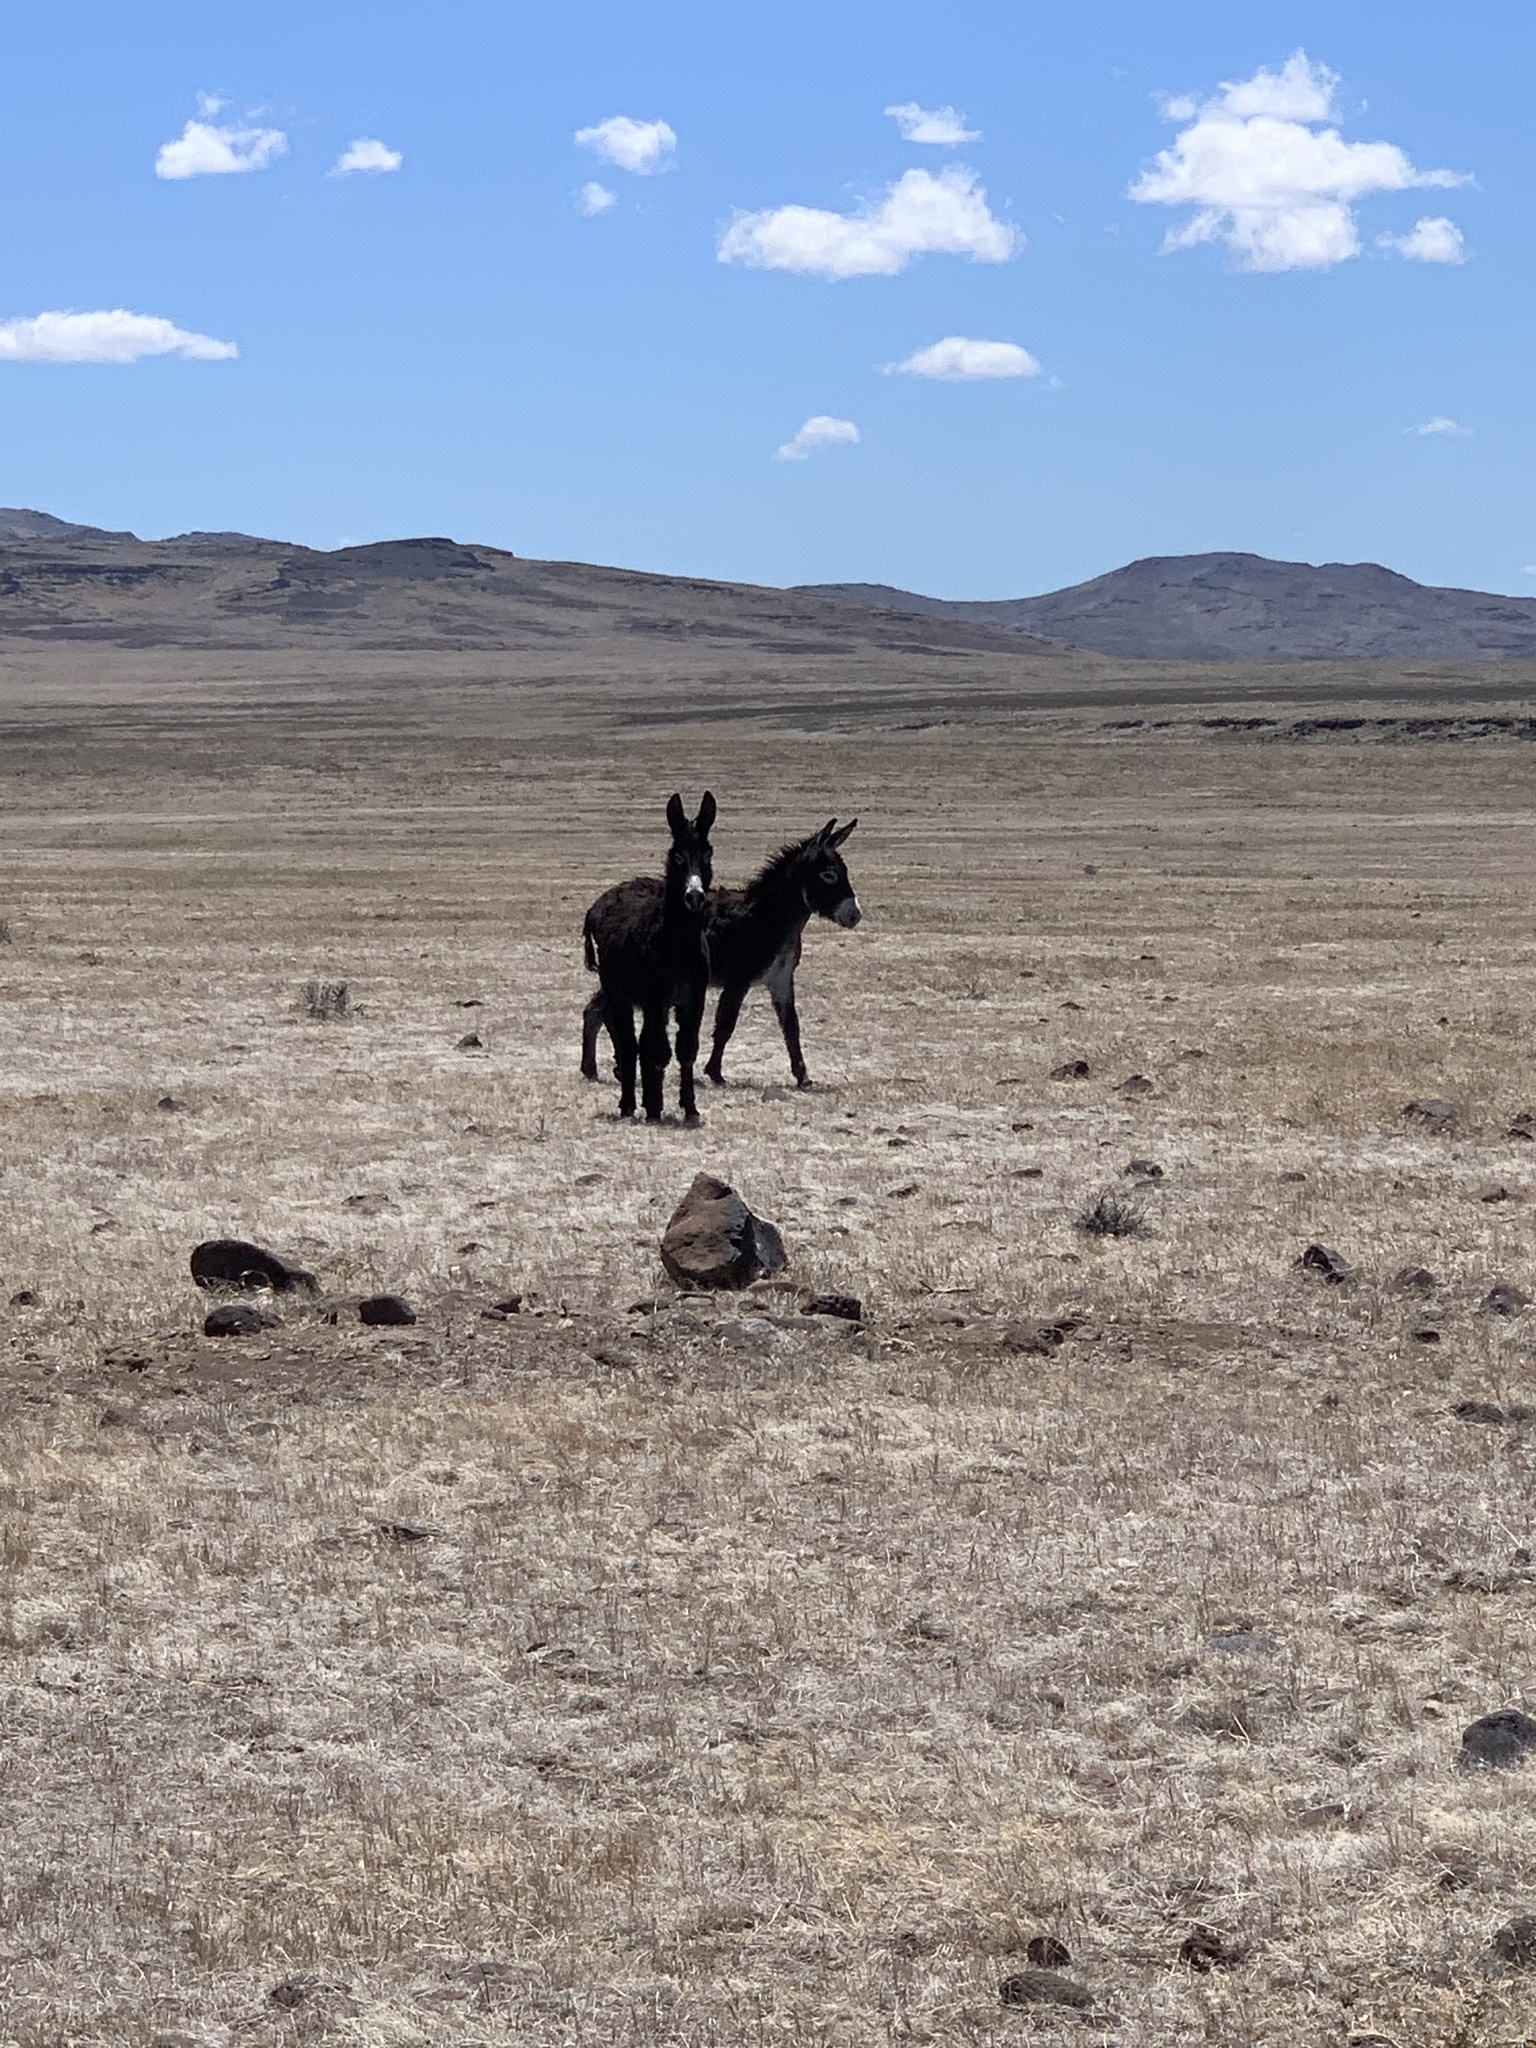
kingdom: Animalia
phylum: Chordata
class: Mammalia
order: Perissodactyla
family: Equidae
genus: Equus
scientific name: Equus asinus
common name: Ass
